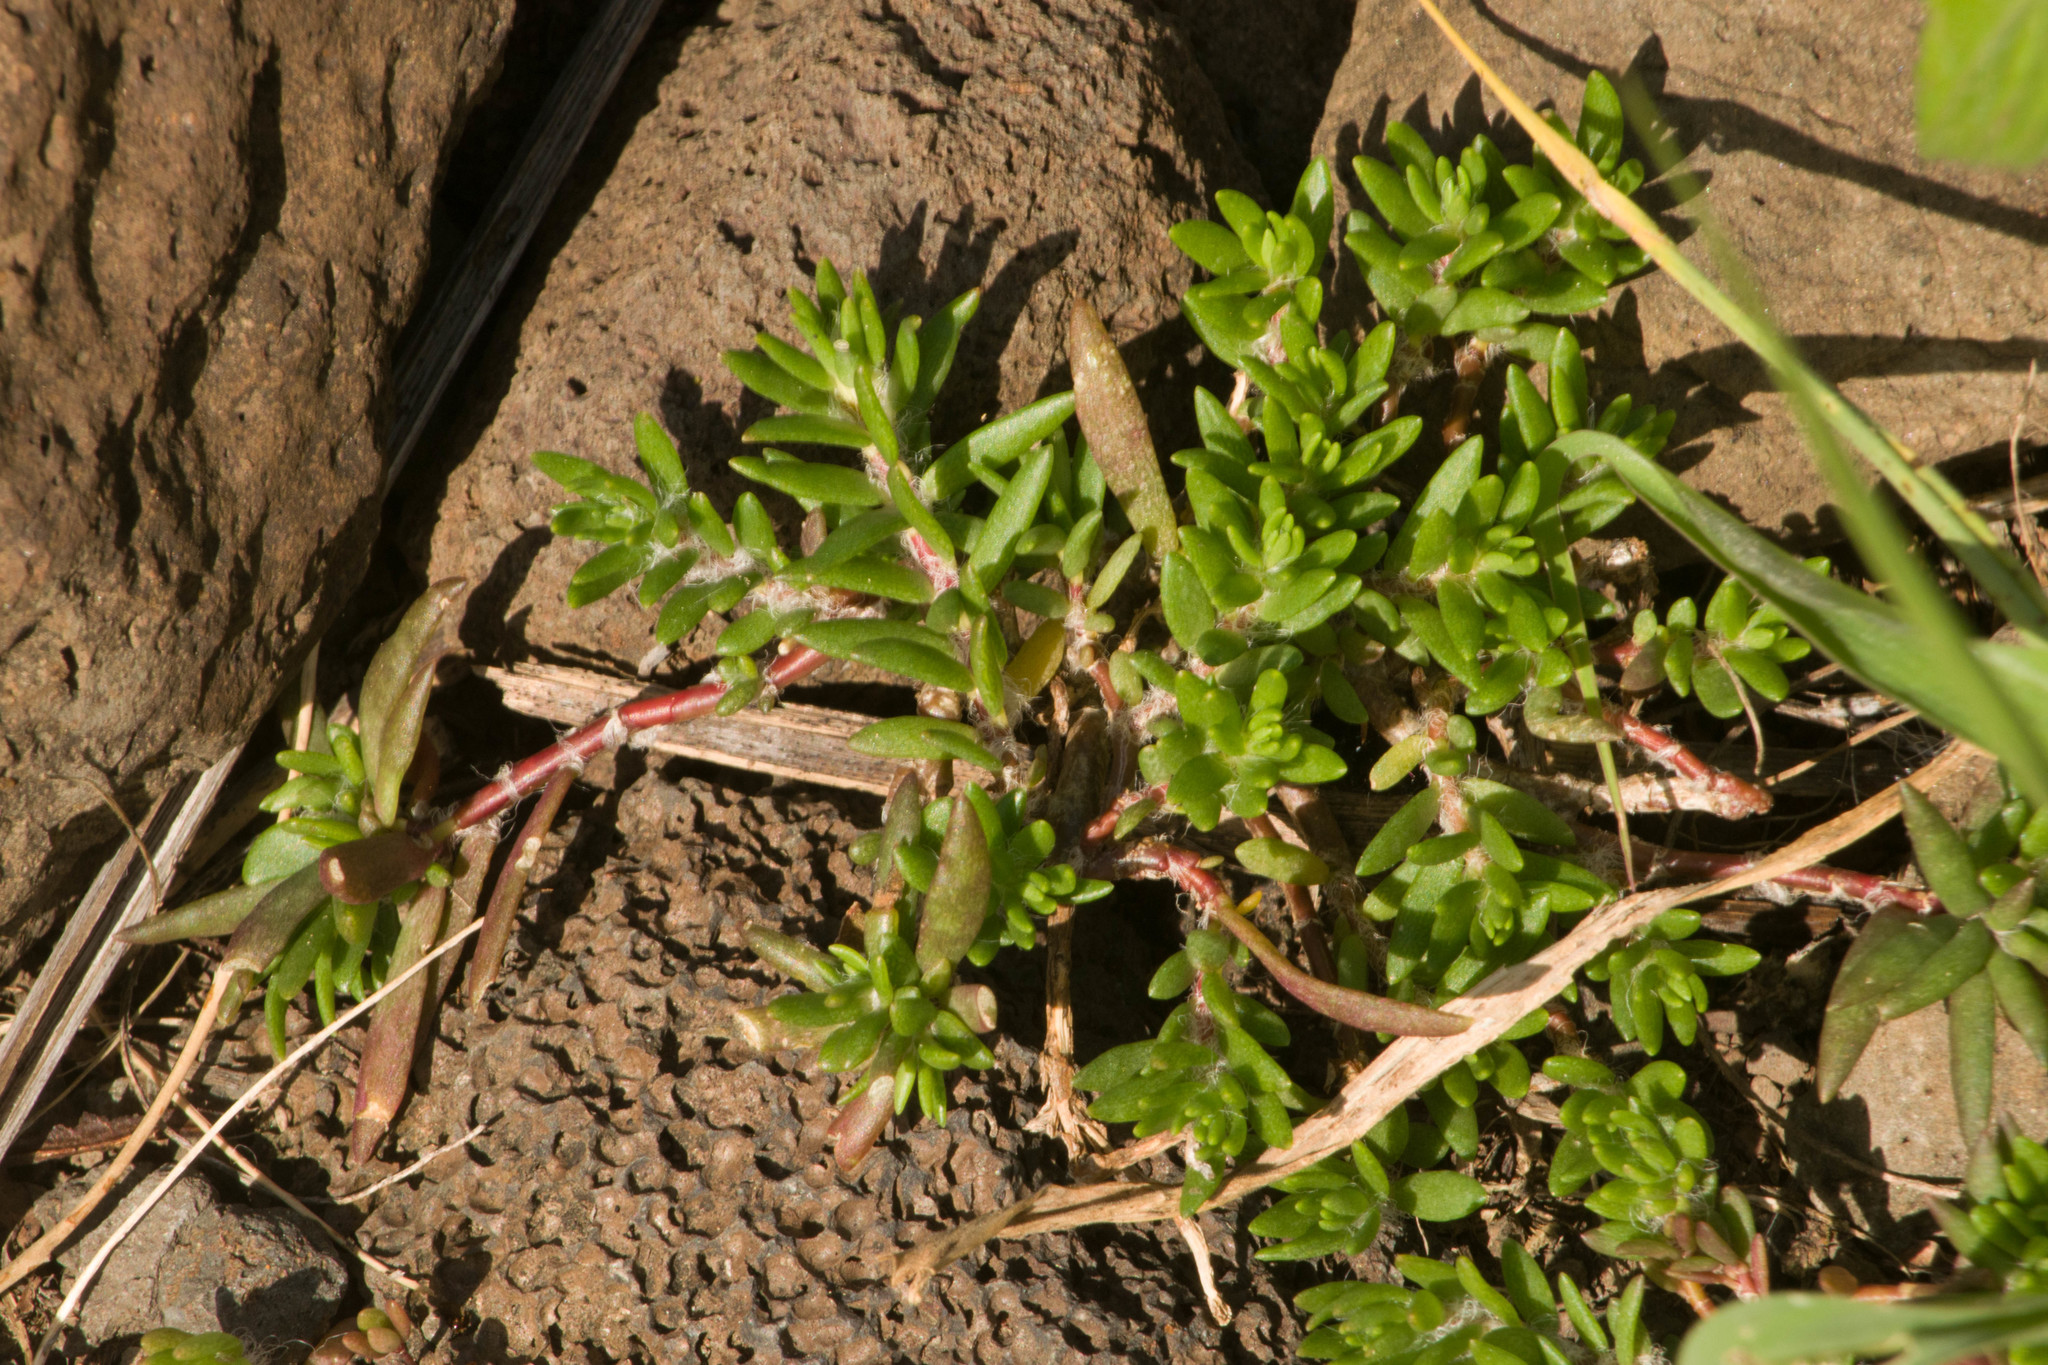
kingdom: Plantae
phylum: Tracheophyta
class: Magnoliopsida
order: Caryophyllales
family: Portulacaceae
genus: Portulaca
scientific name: Portulaca pilosa
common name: Kiss me quick
